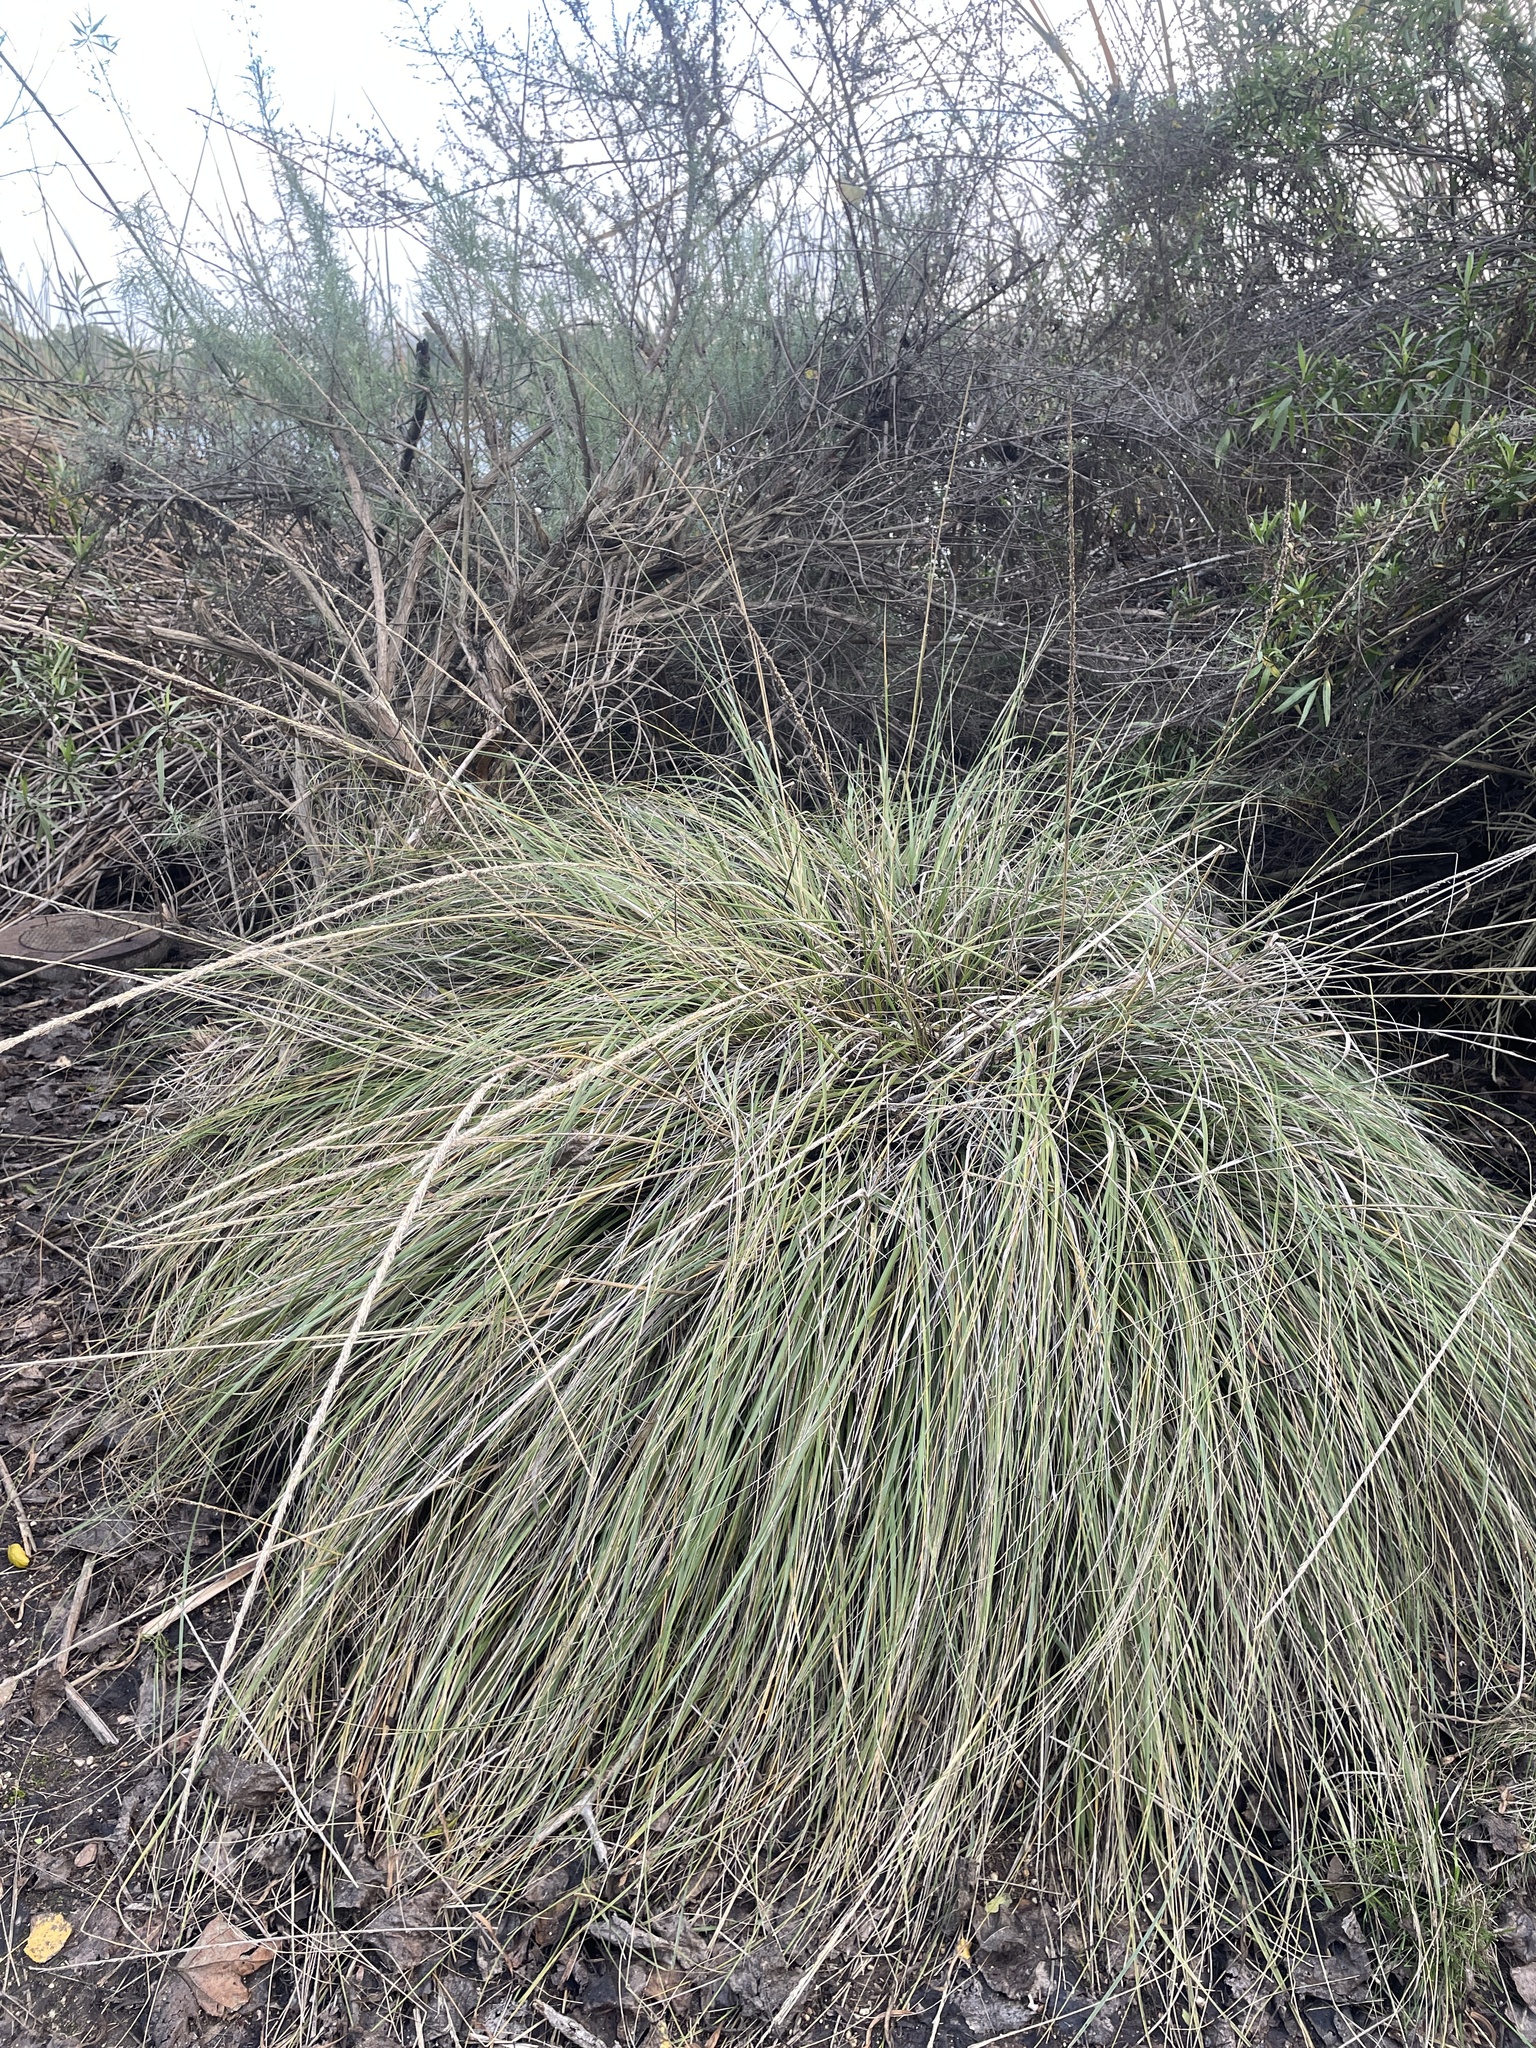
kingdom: Plantae
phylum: Tracheophyta
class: Liliopsida
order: Poales
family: Poaceae
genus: Muhlenbergia
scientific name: Muhlenbergia rigens
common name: Deer grass
